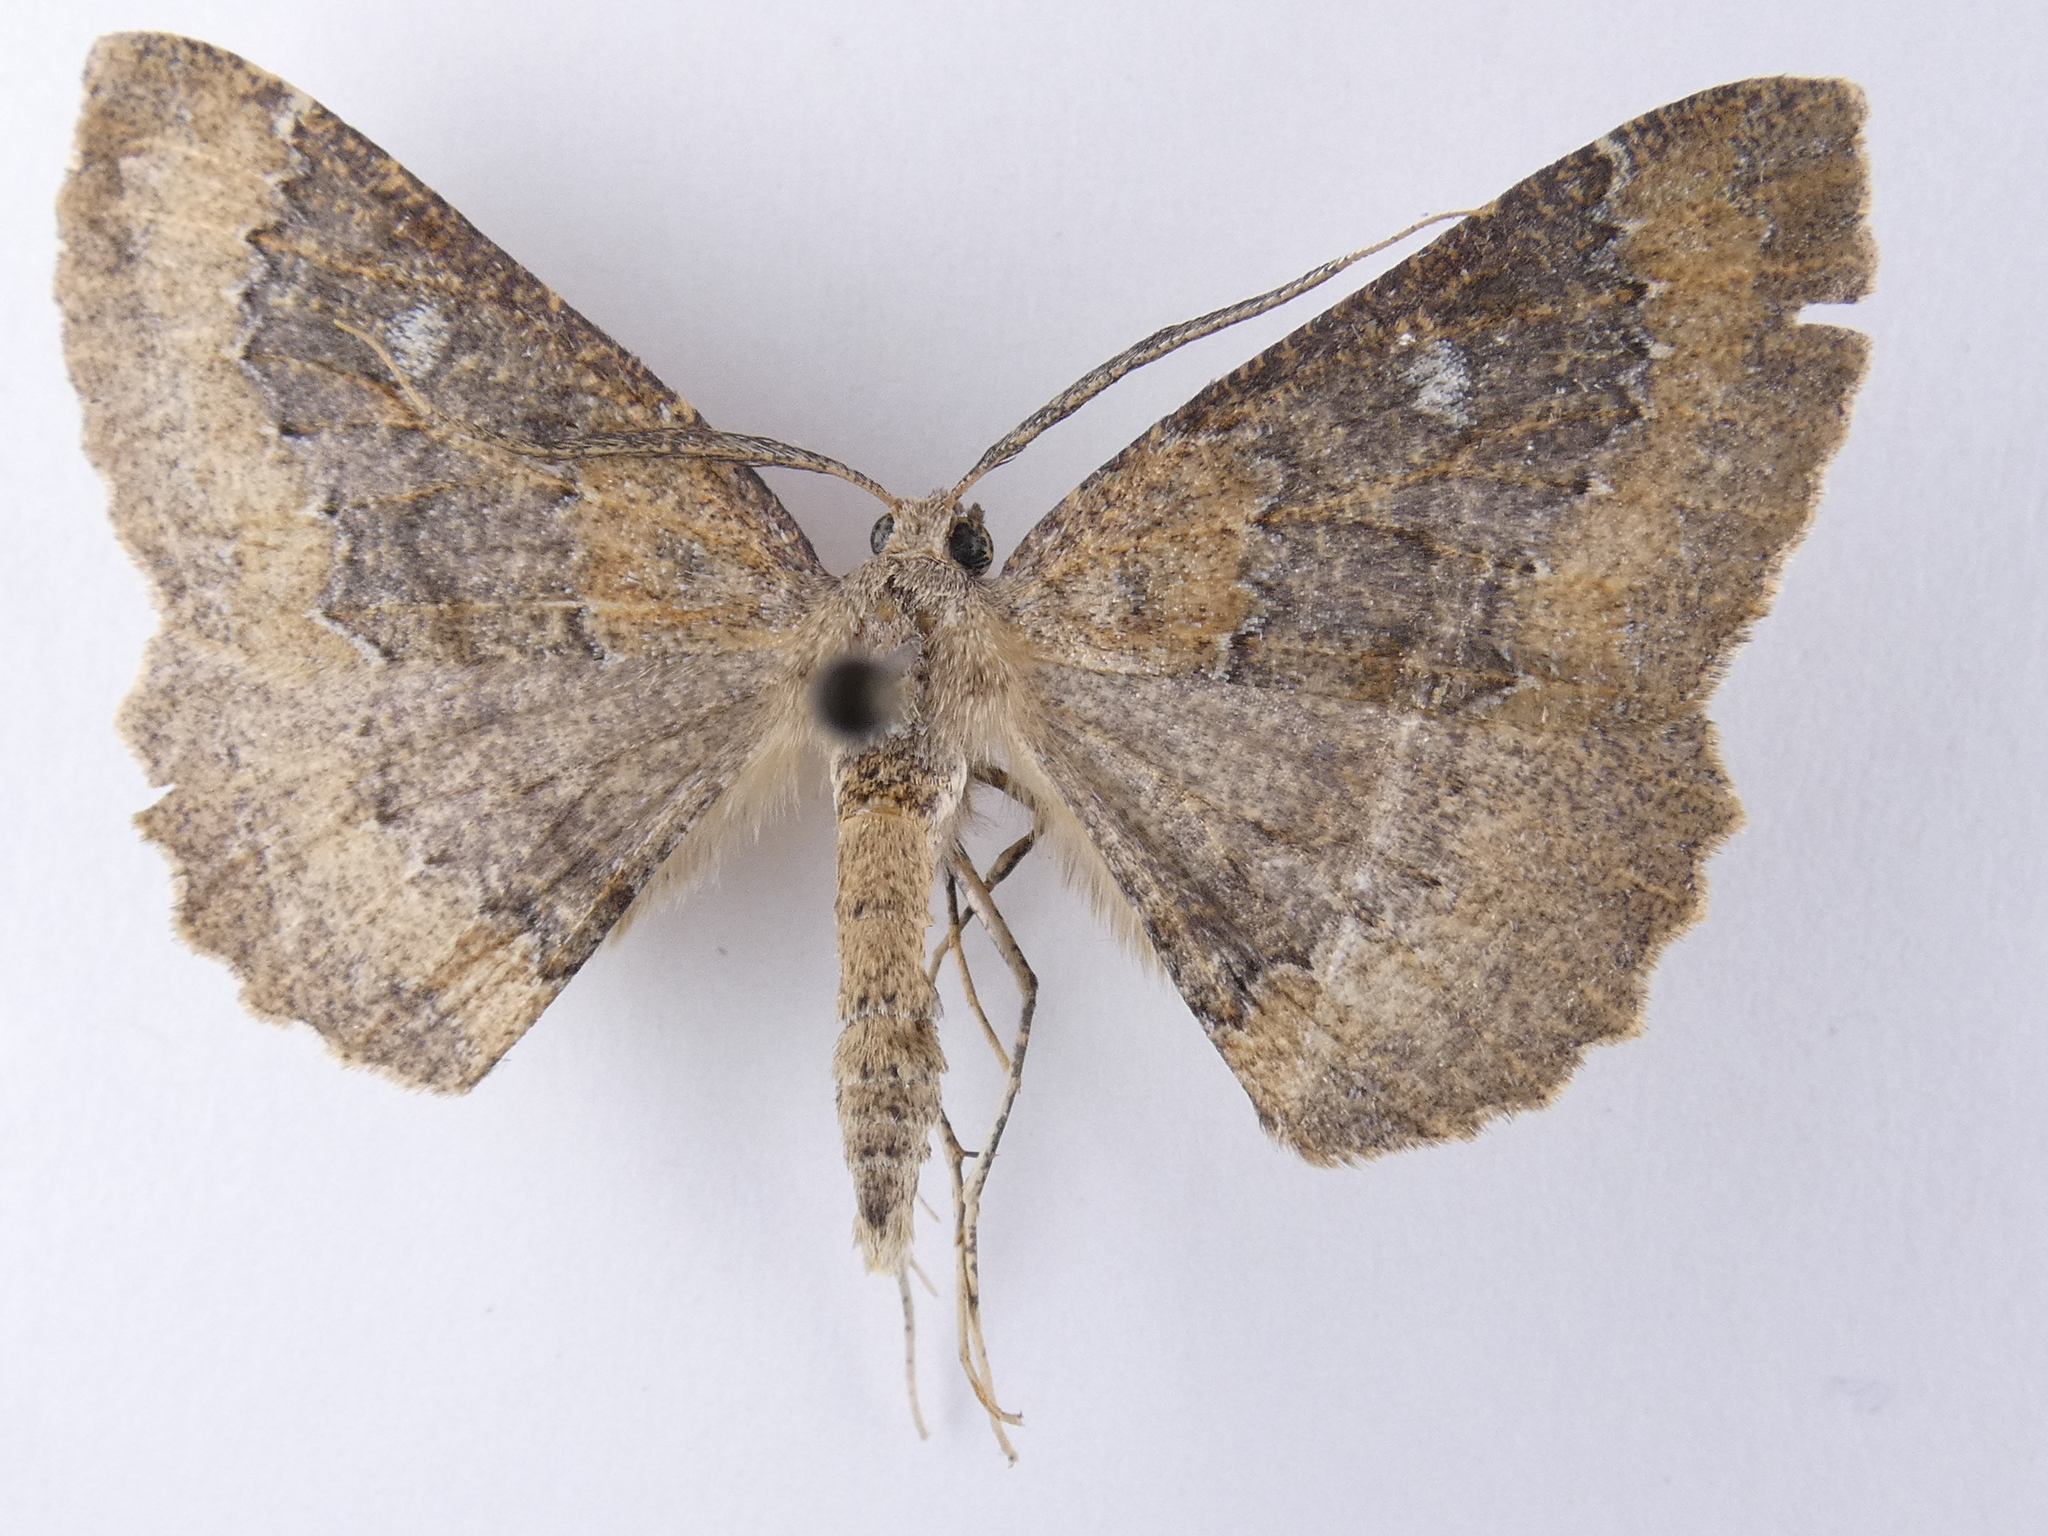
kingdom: Animalia
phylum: Arthropoda
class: Insecta
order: Lepidoptera
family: Geometridae
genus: Cleora
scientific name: Cleora scriptaria
